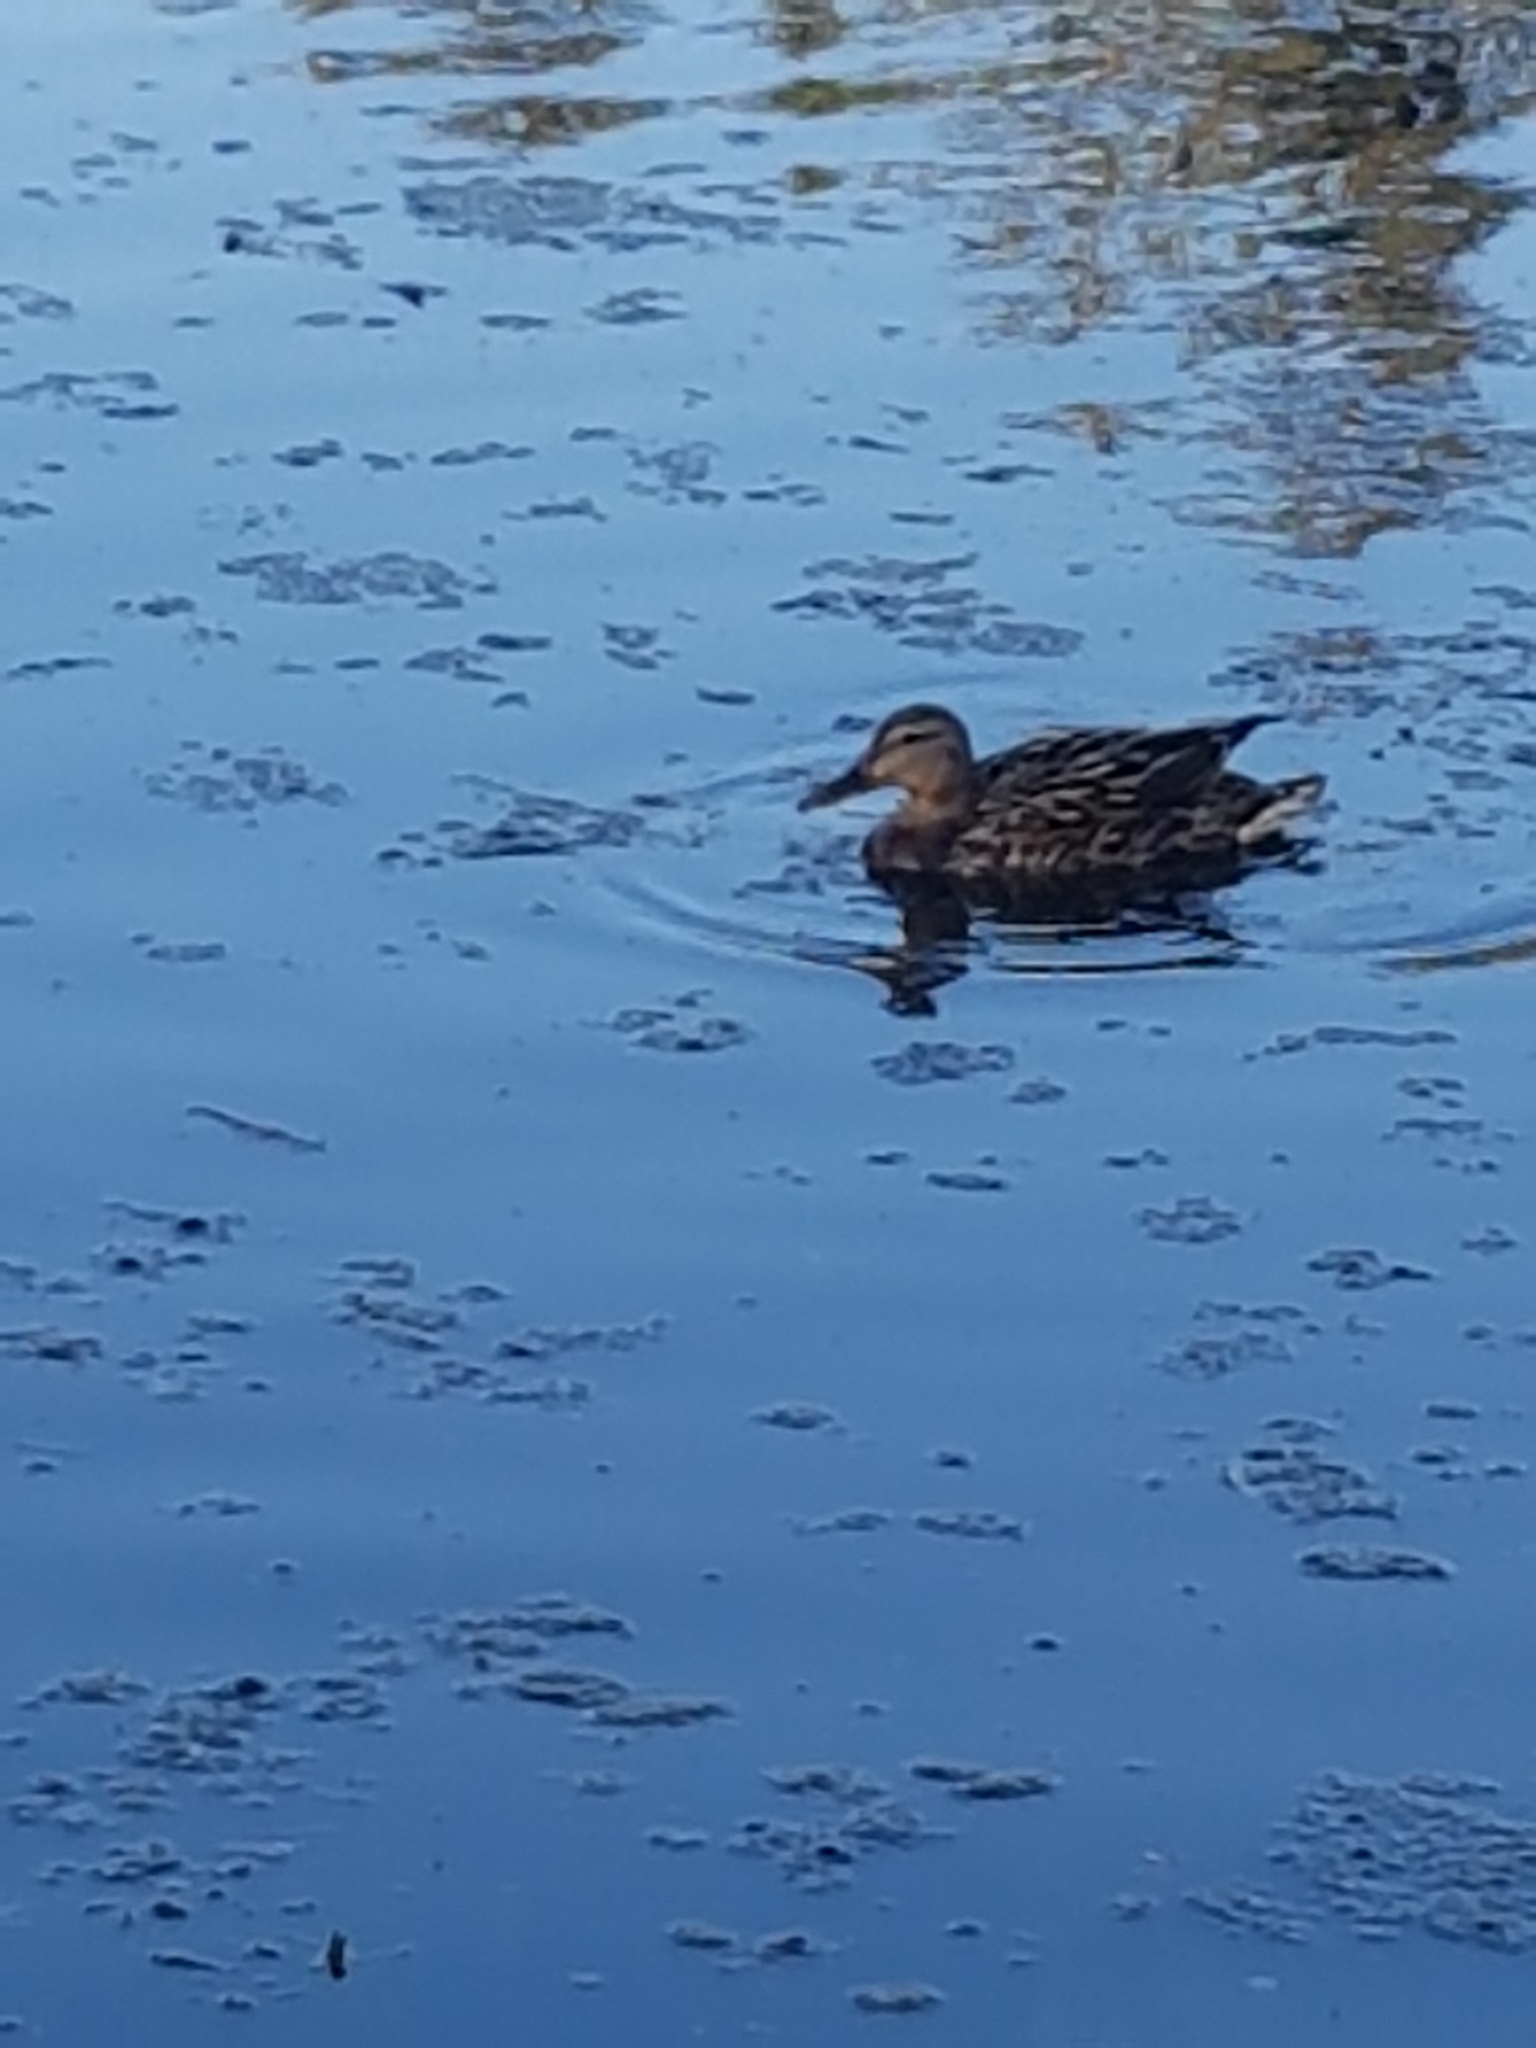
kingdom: Animalia
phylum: Chordata
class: Aves
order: Anseriformes
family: Anatidae
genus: Anas
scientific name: Anas platyrhynchos
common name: Mallard
